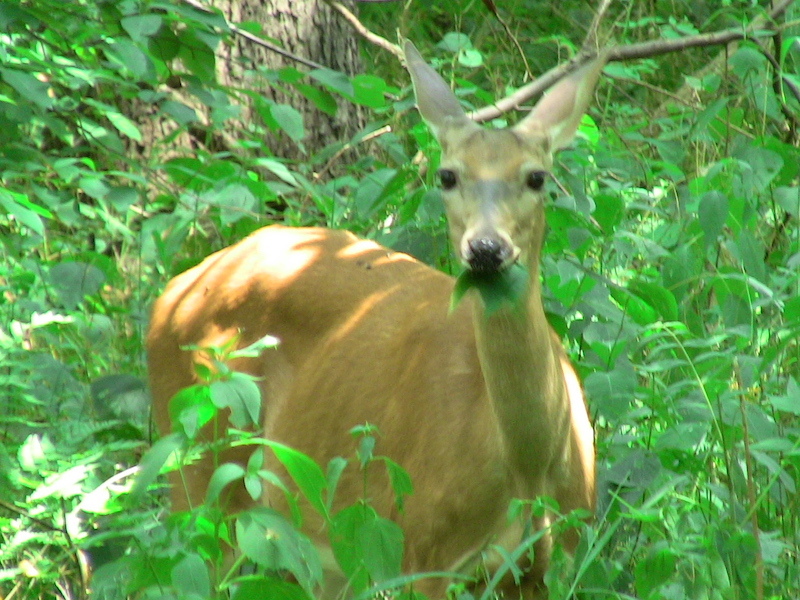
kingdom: Animalia
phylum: Chordata
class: Mammalia
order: Artiodactyla
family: Cervidae
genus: Odocoileus
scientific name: Odocoileus virginianus
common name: White-tailed deer
